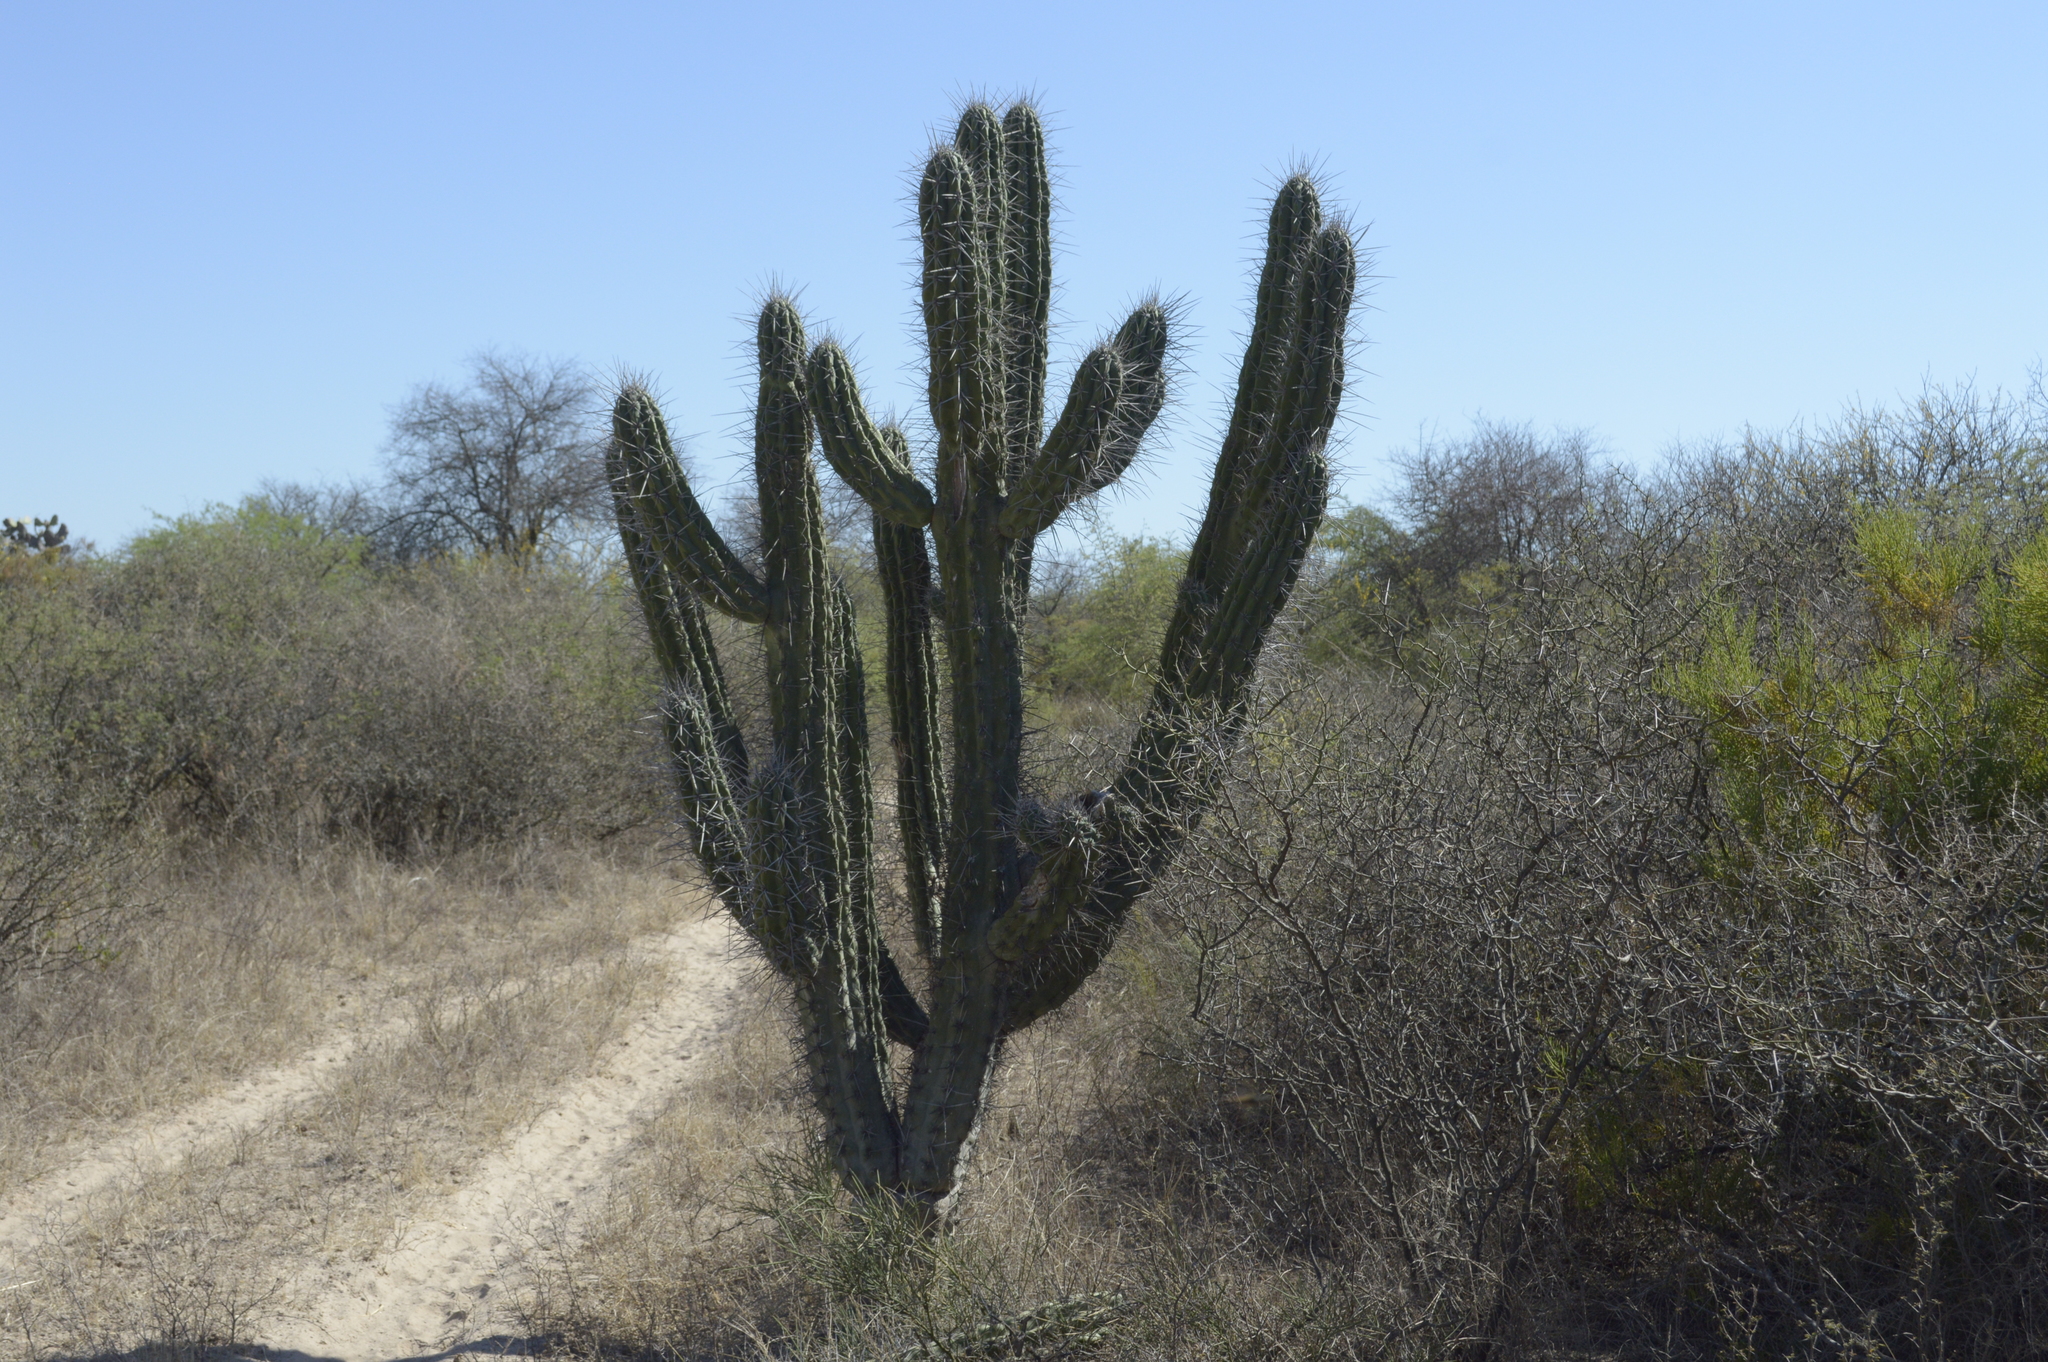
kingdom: Plantae
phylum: Tracheophyta
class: Magnoliopsida
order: Caryophyllales
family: Cactaceae
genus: Stetsonia
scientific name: Stetsonia coryne
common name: Toothpick cactus
